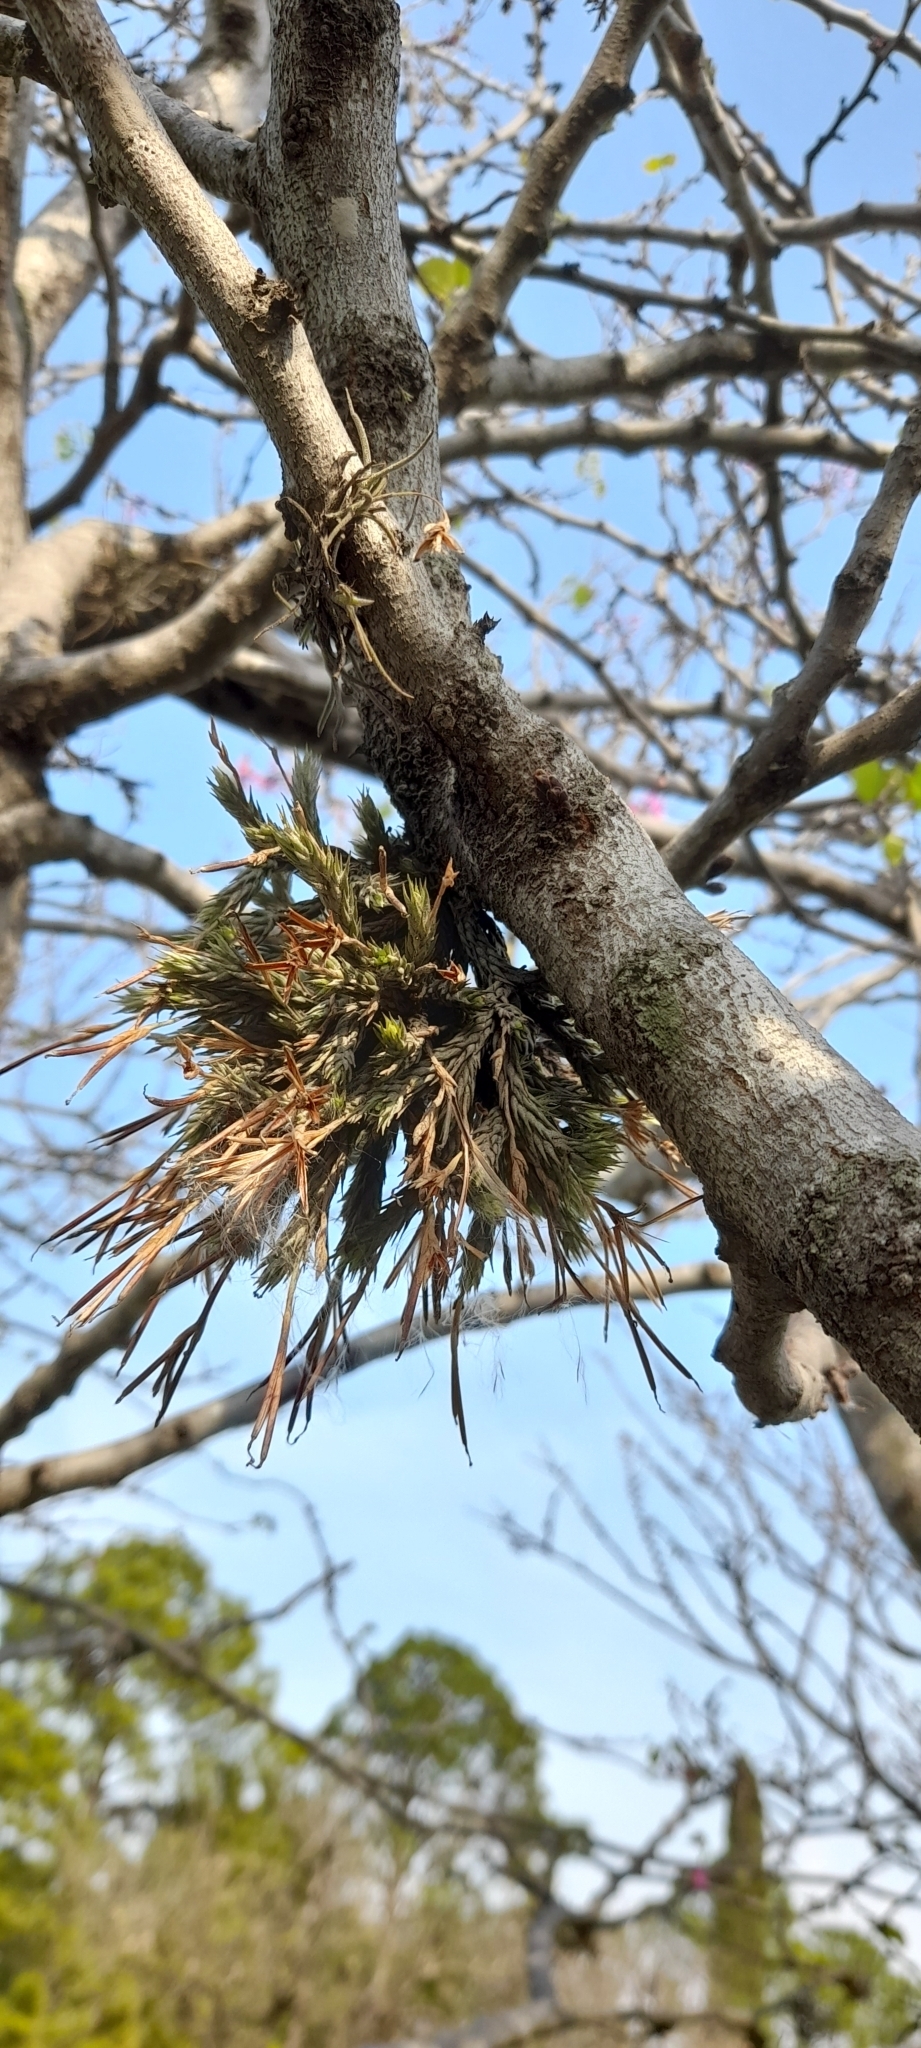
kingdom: Plantae
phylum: Tracheophyta
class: Liliopsida
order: Poales
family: Bromeliaceae
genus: Tillandsia
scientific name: Tillandsia tricholepis
